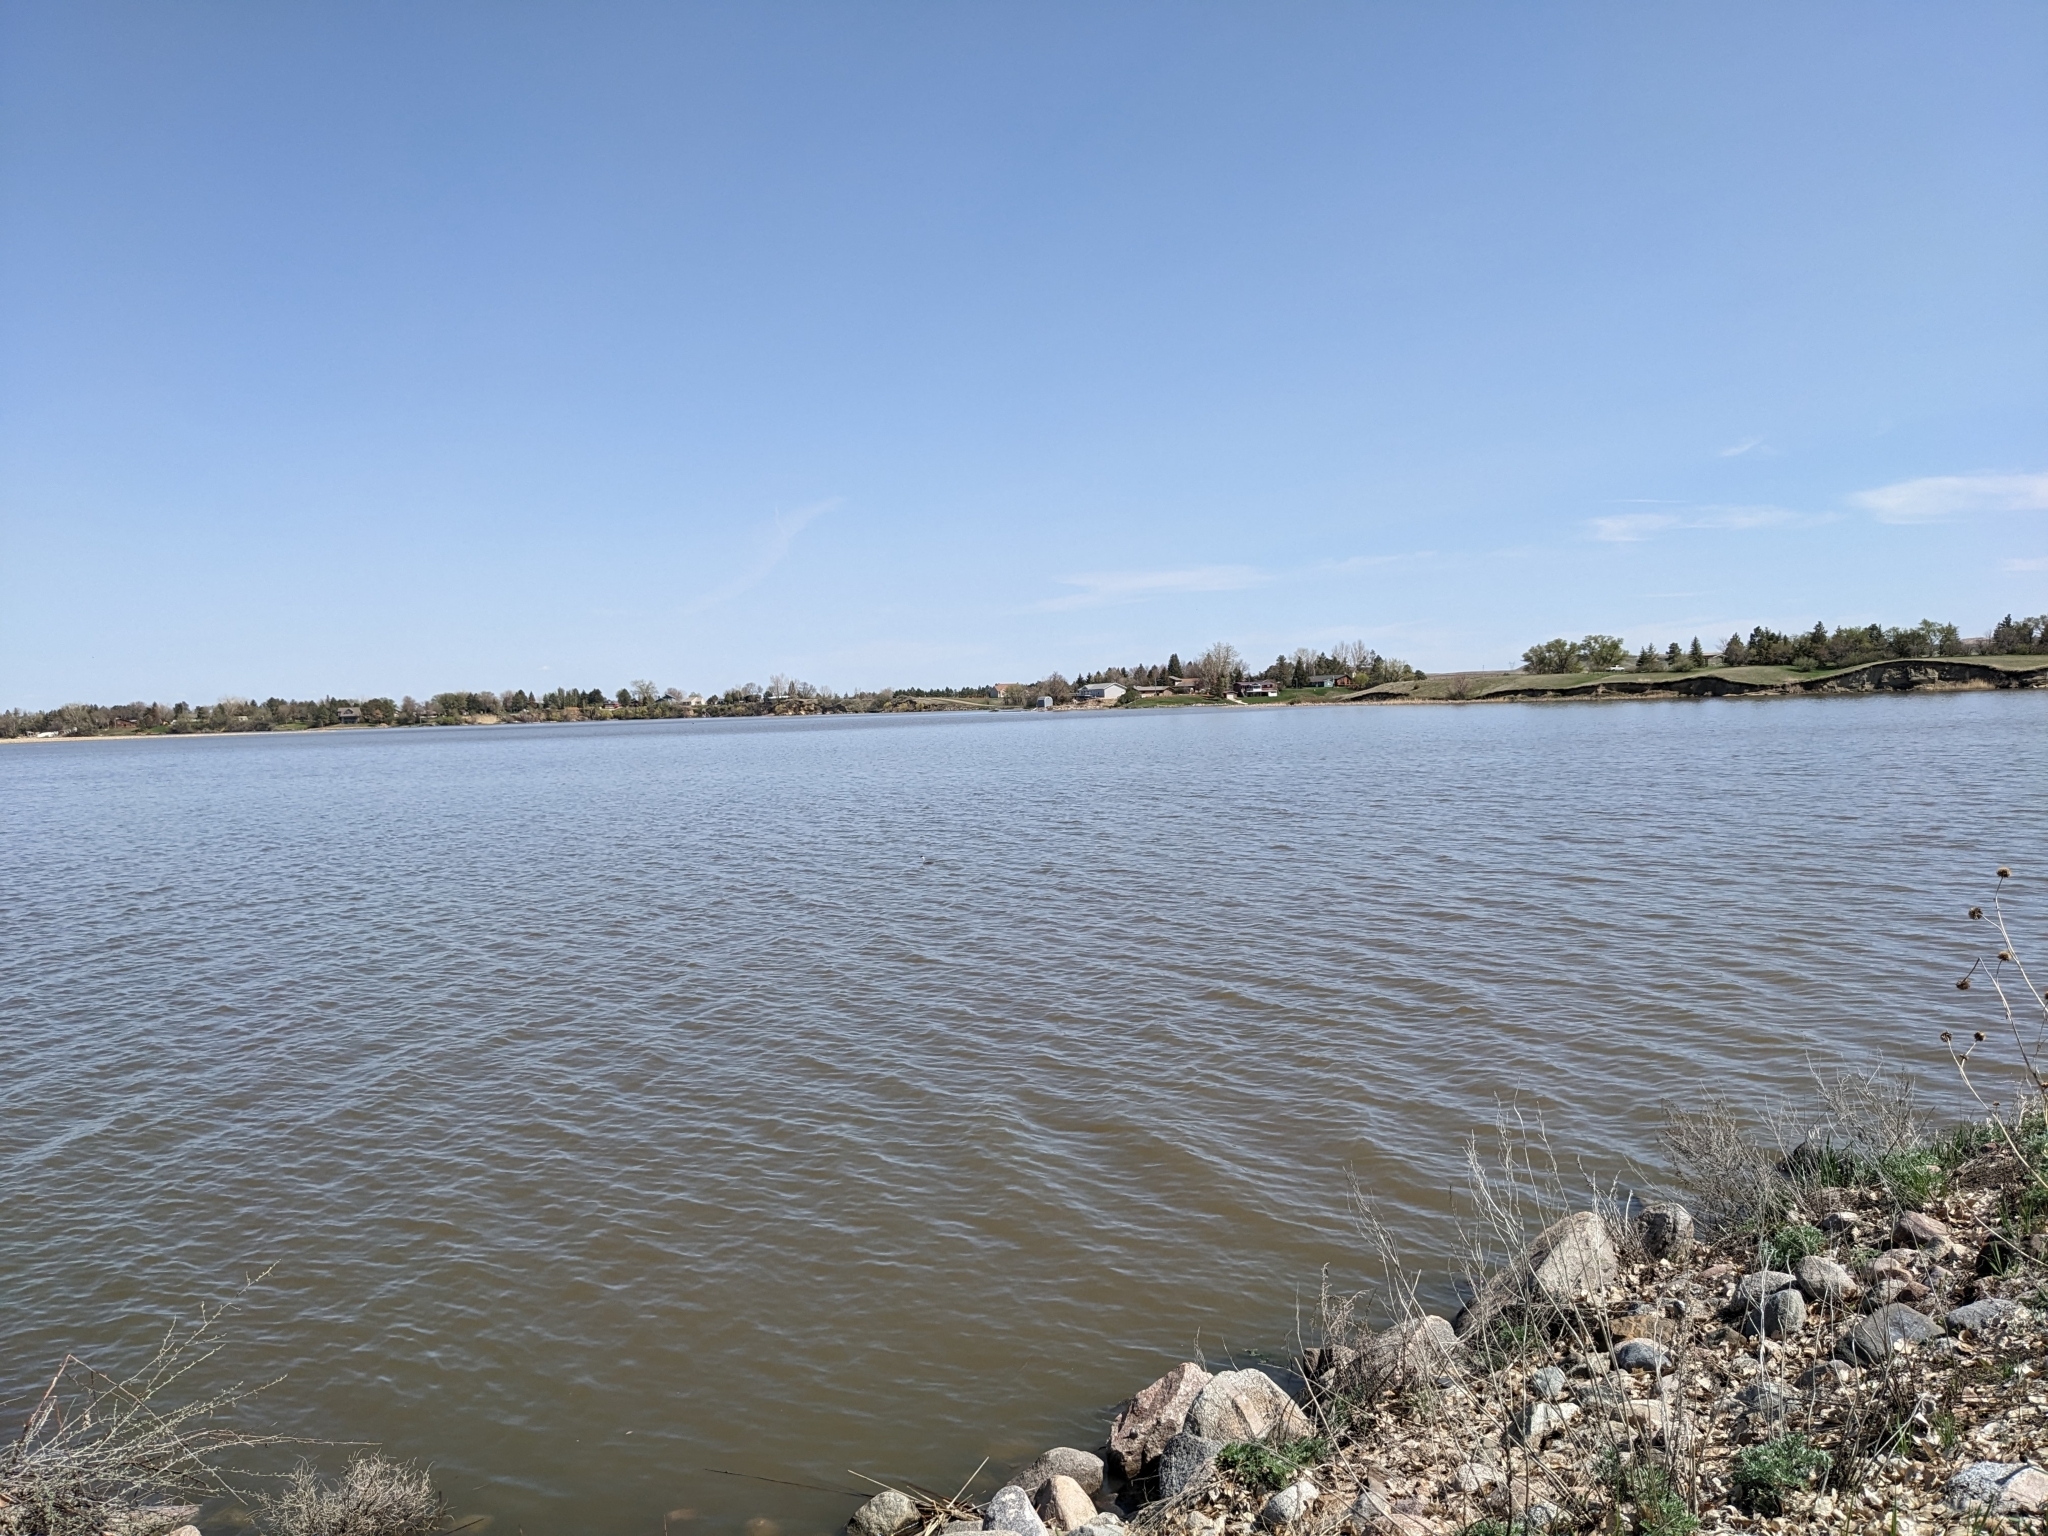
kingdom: Animalia
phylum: Chordata
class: Aves
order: Podicipediformes
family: Podicipedidae
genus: Aechmophorus
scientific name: Aechmophorus occidentalis
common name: Western grebe
